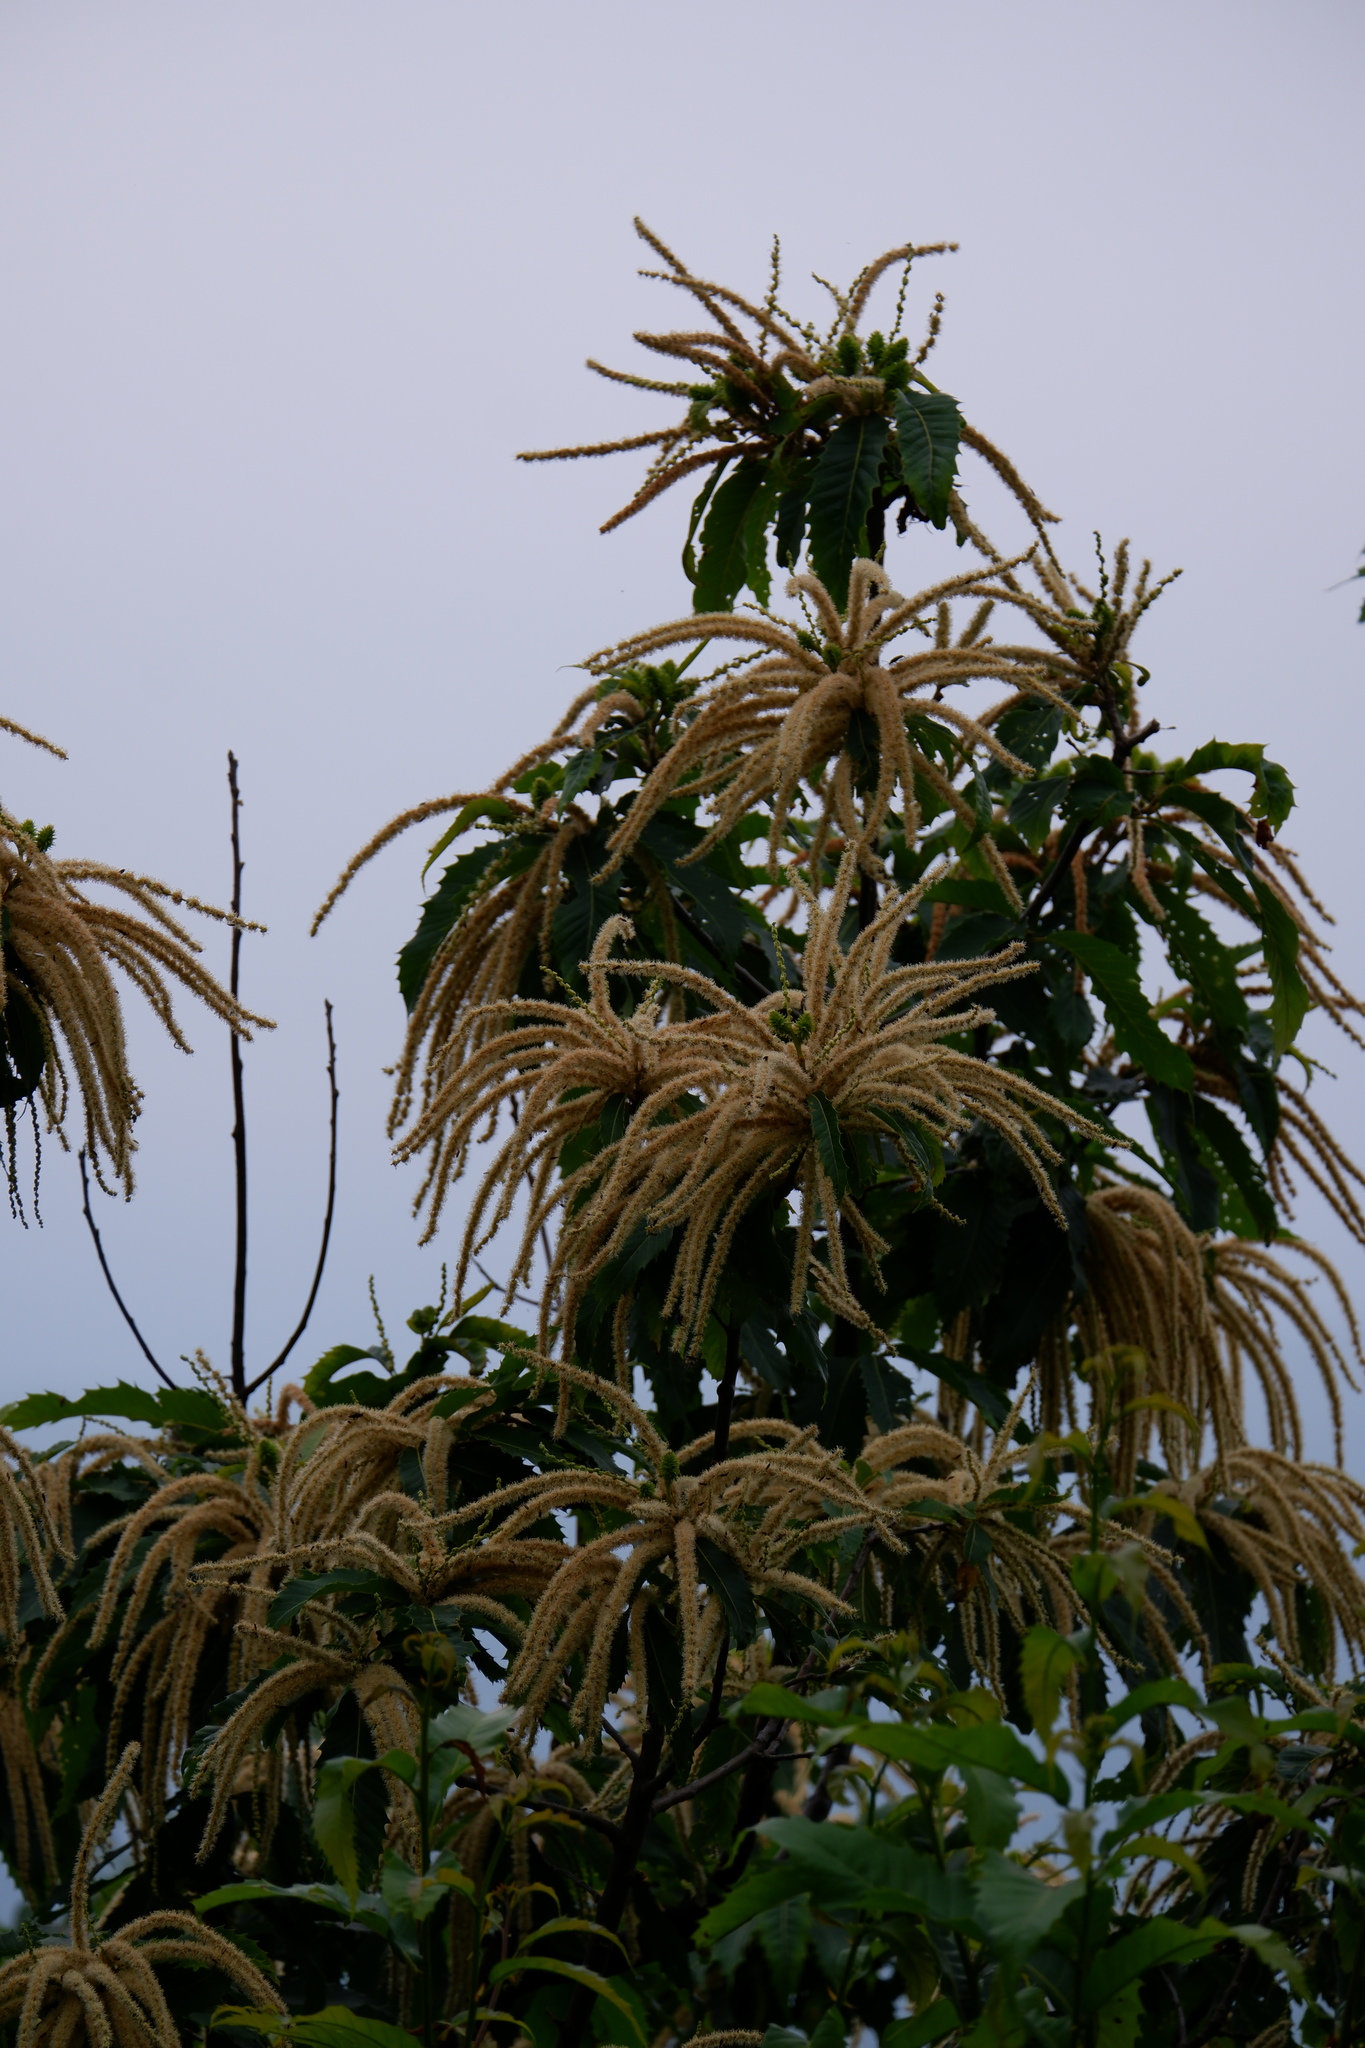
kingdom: Plantae
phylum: Tracheophyta
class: Magnoliopsida
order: Fagales
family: Fagaceae
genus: Castanea
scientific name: Castanea dentata
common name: American chestnut
